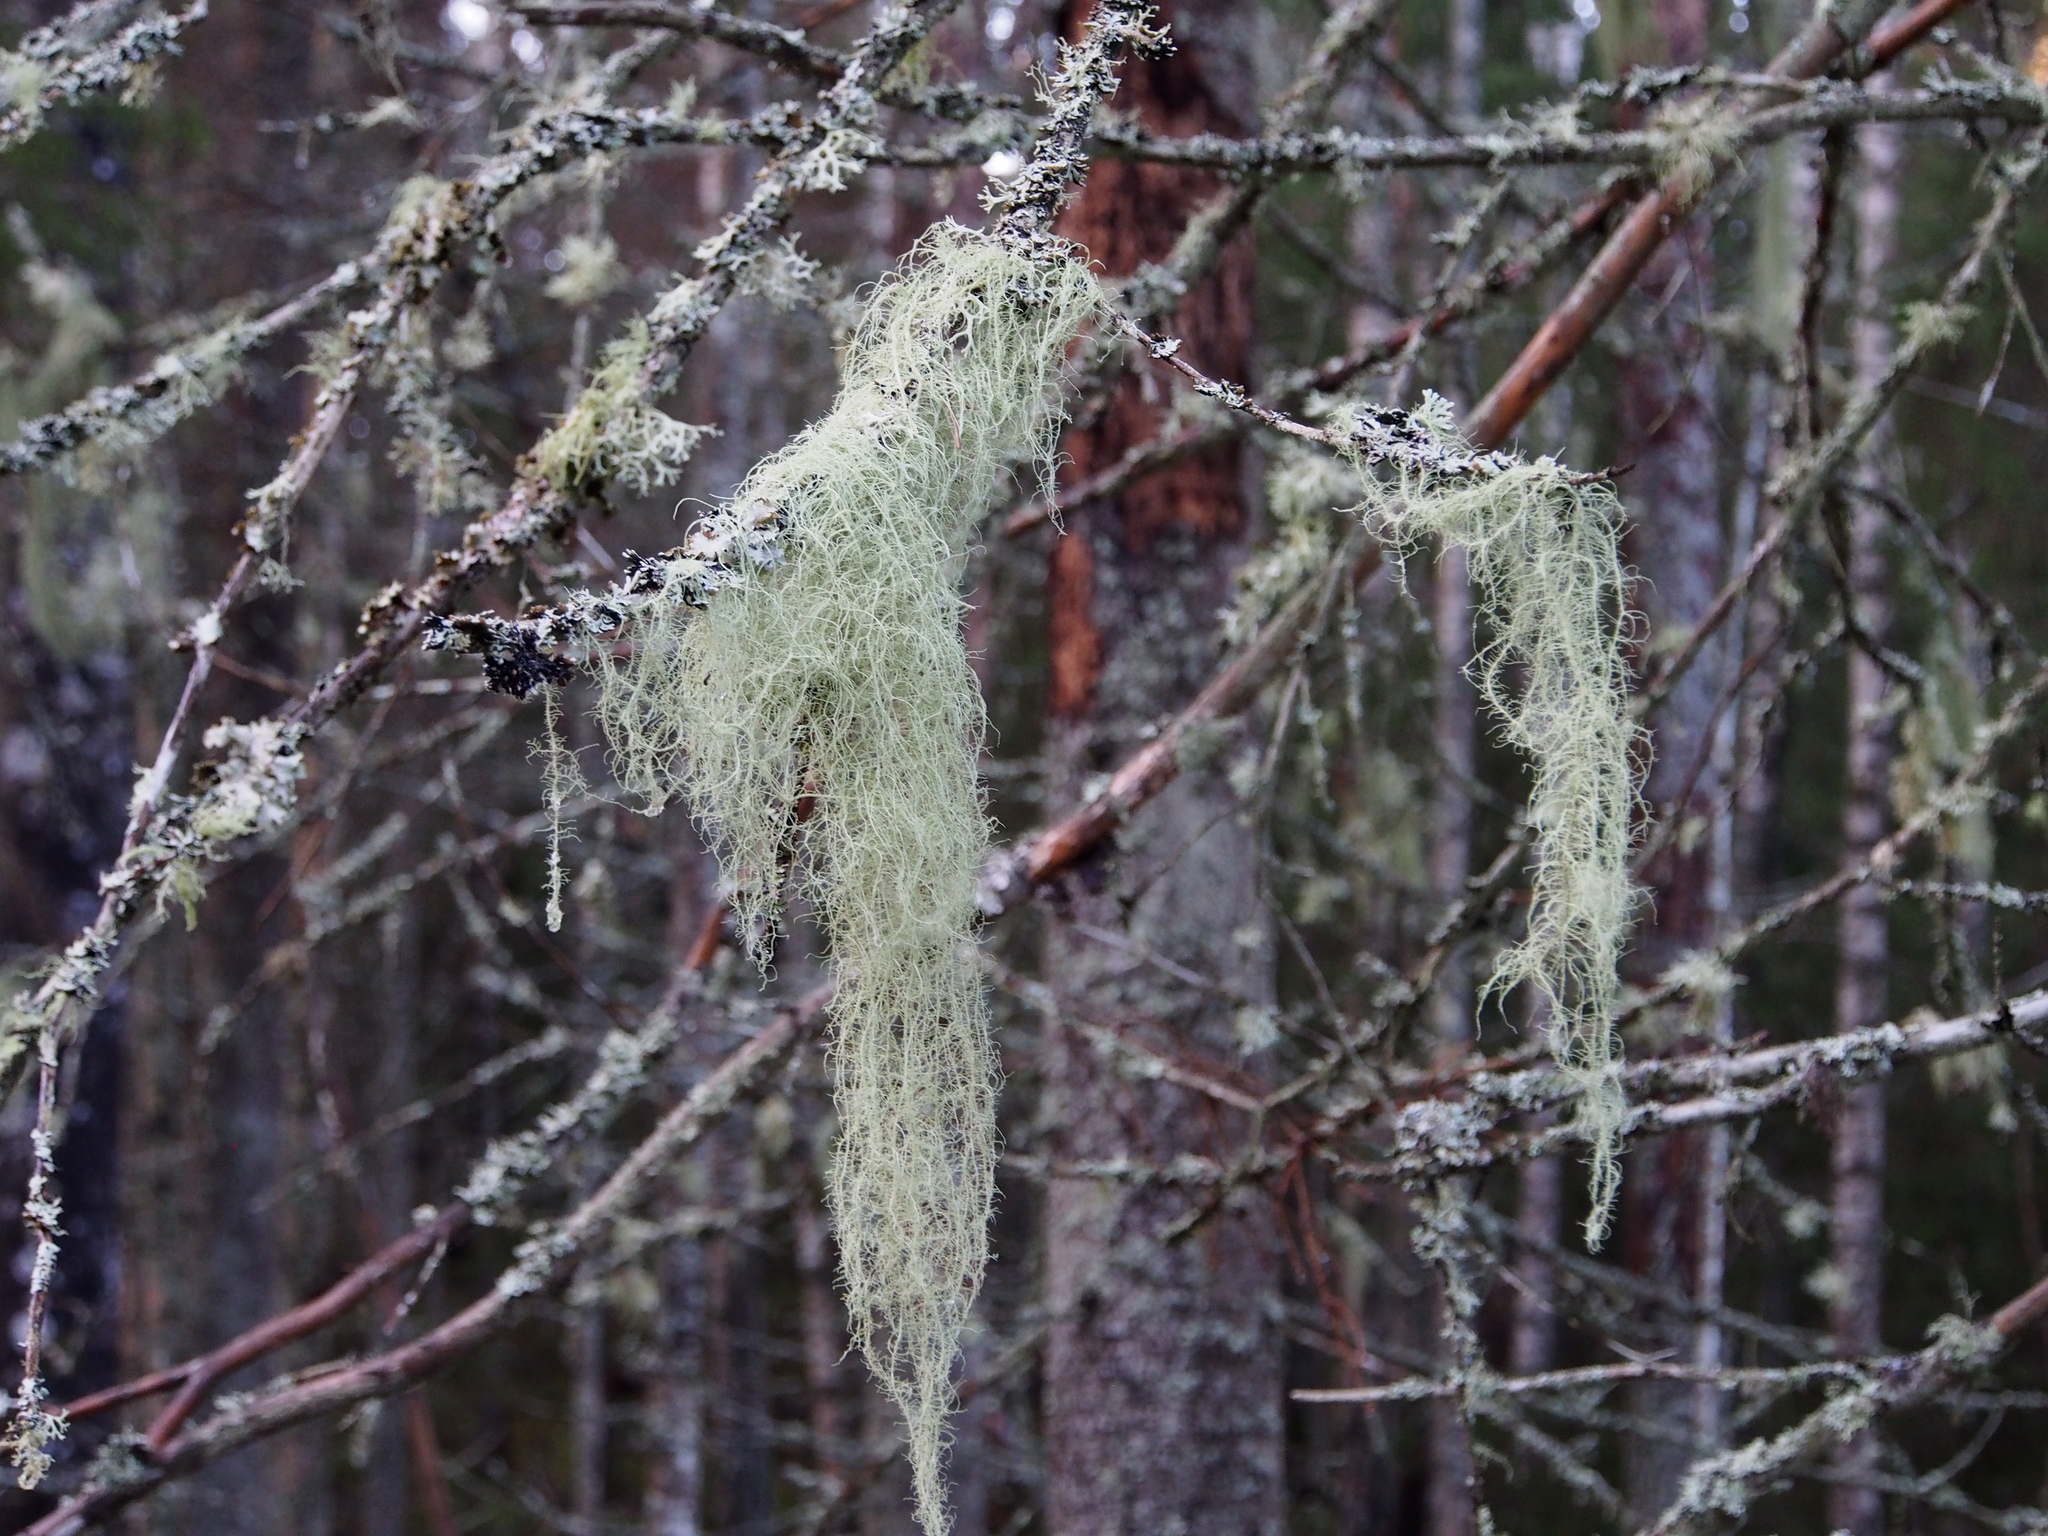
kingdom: Fungi
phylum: Ascomycota
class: Lecanoromycetes
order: Lecanorales
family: Parmeliaceae
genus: Usnea
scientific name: Usnea dasopoga
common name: Fishbone beard lichen
